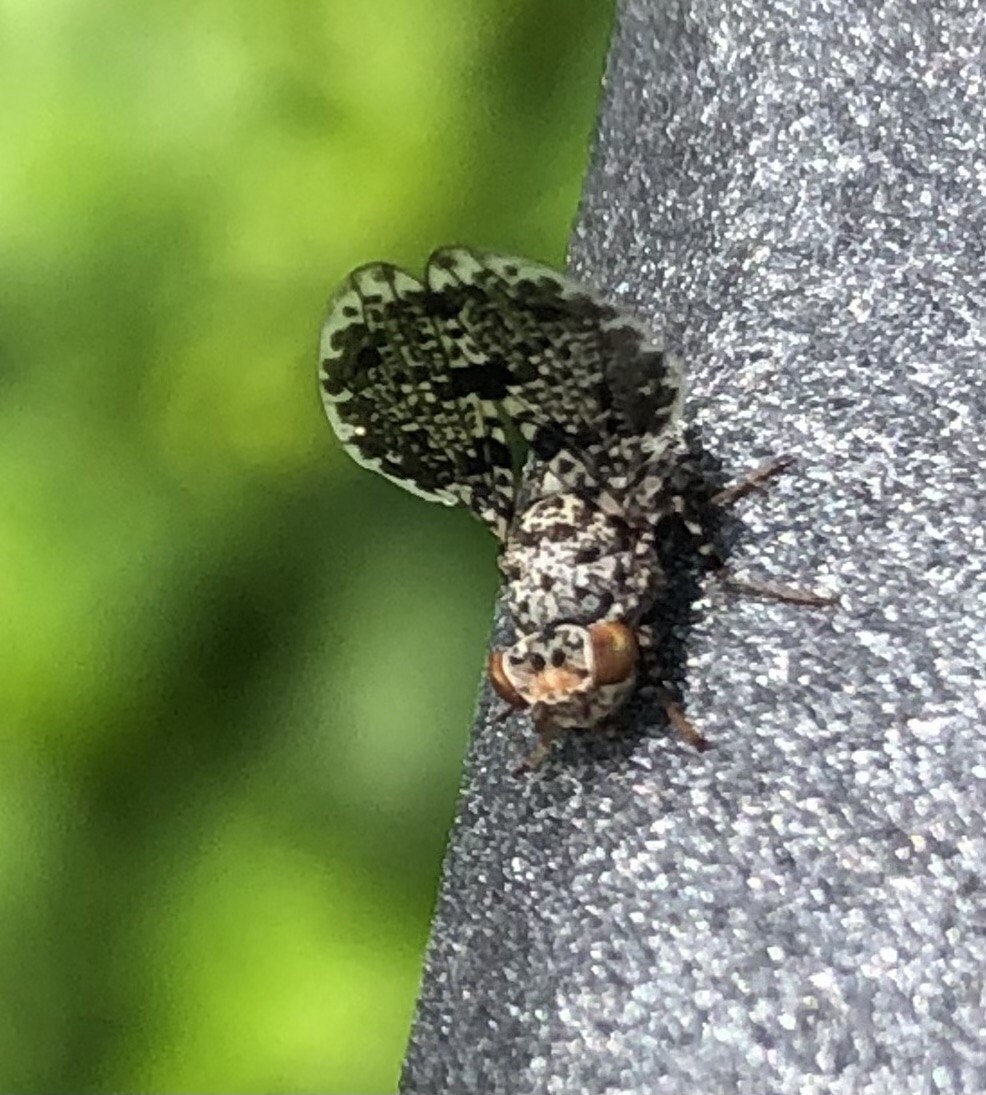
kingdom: Animalia
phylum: Arthropoda
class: Insecta
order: Diptera
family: Ulidiidae
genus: Callopistromyia
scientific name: Callopistromyia annulipes
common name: Peacock fly
